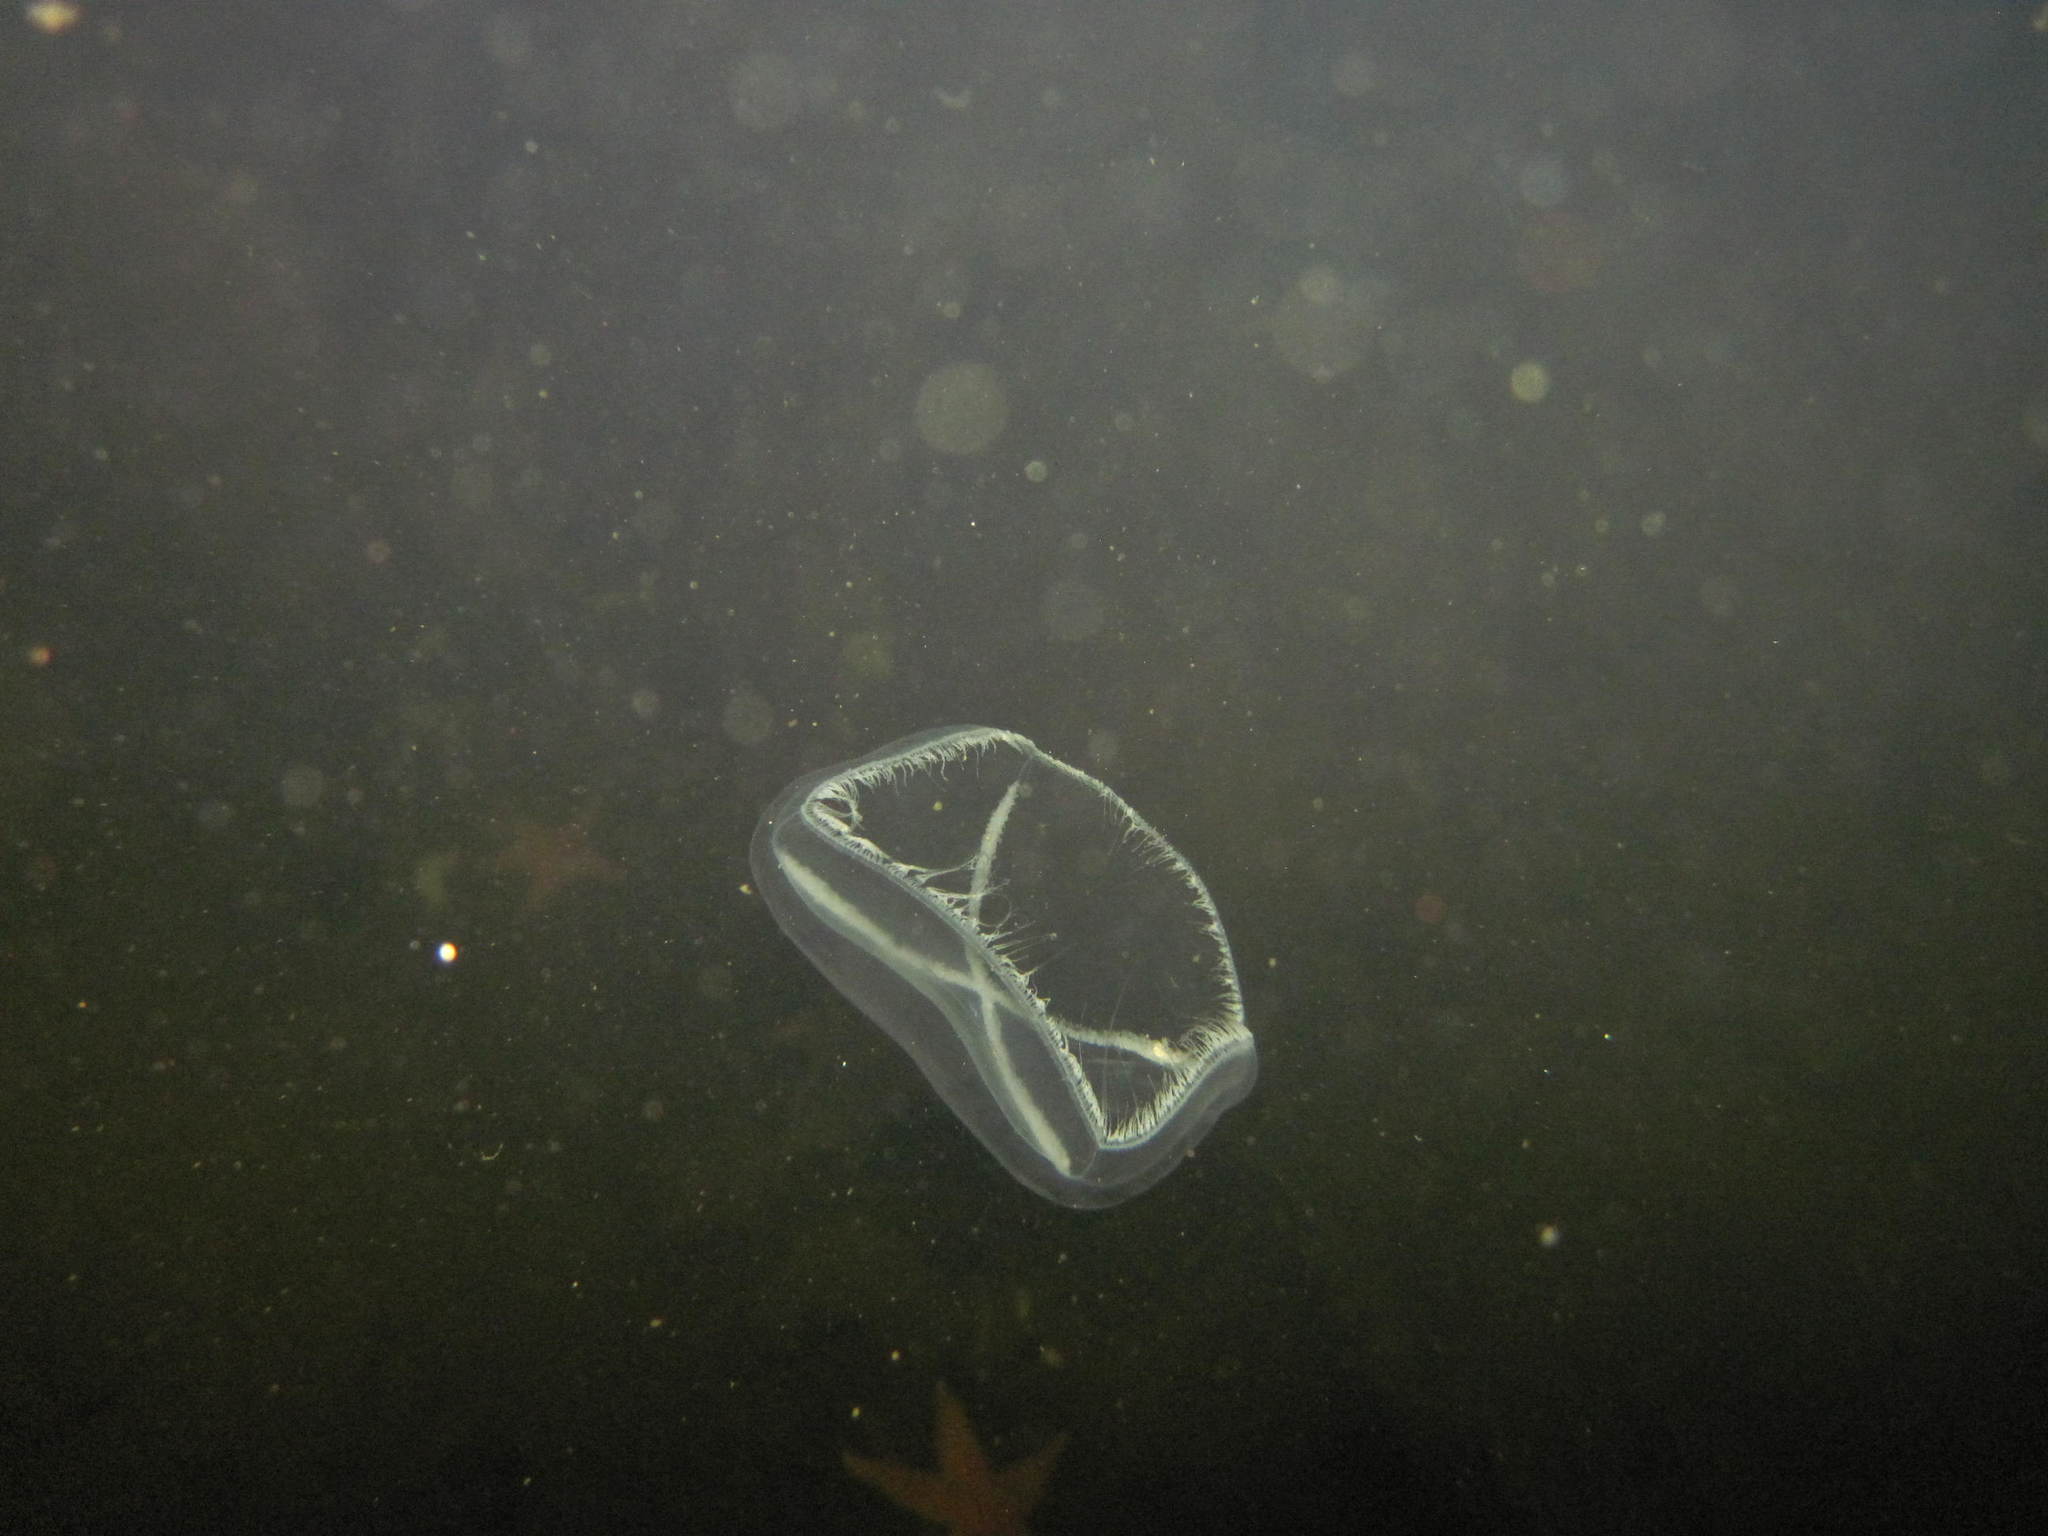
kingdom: Animalia
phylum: Cnidaria
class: Hydrozoa
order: Leptothecata
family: Laodiceidae
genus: Staurostoma
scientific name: Staurostoma mertensii
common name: Whitecross jellyfish
